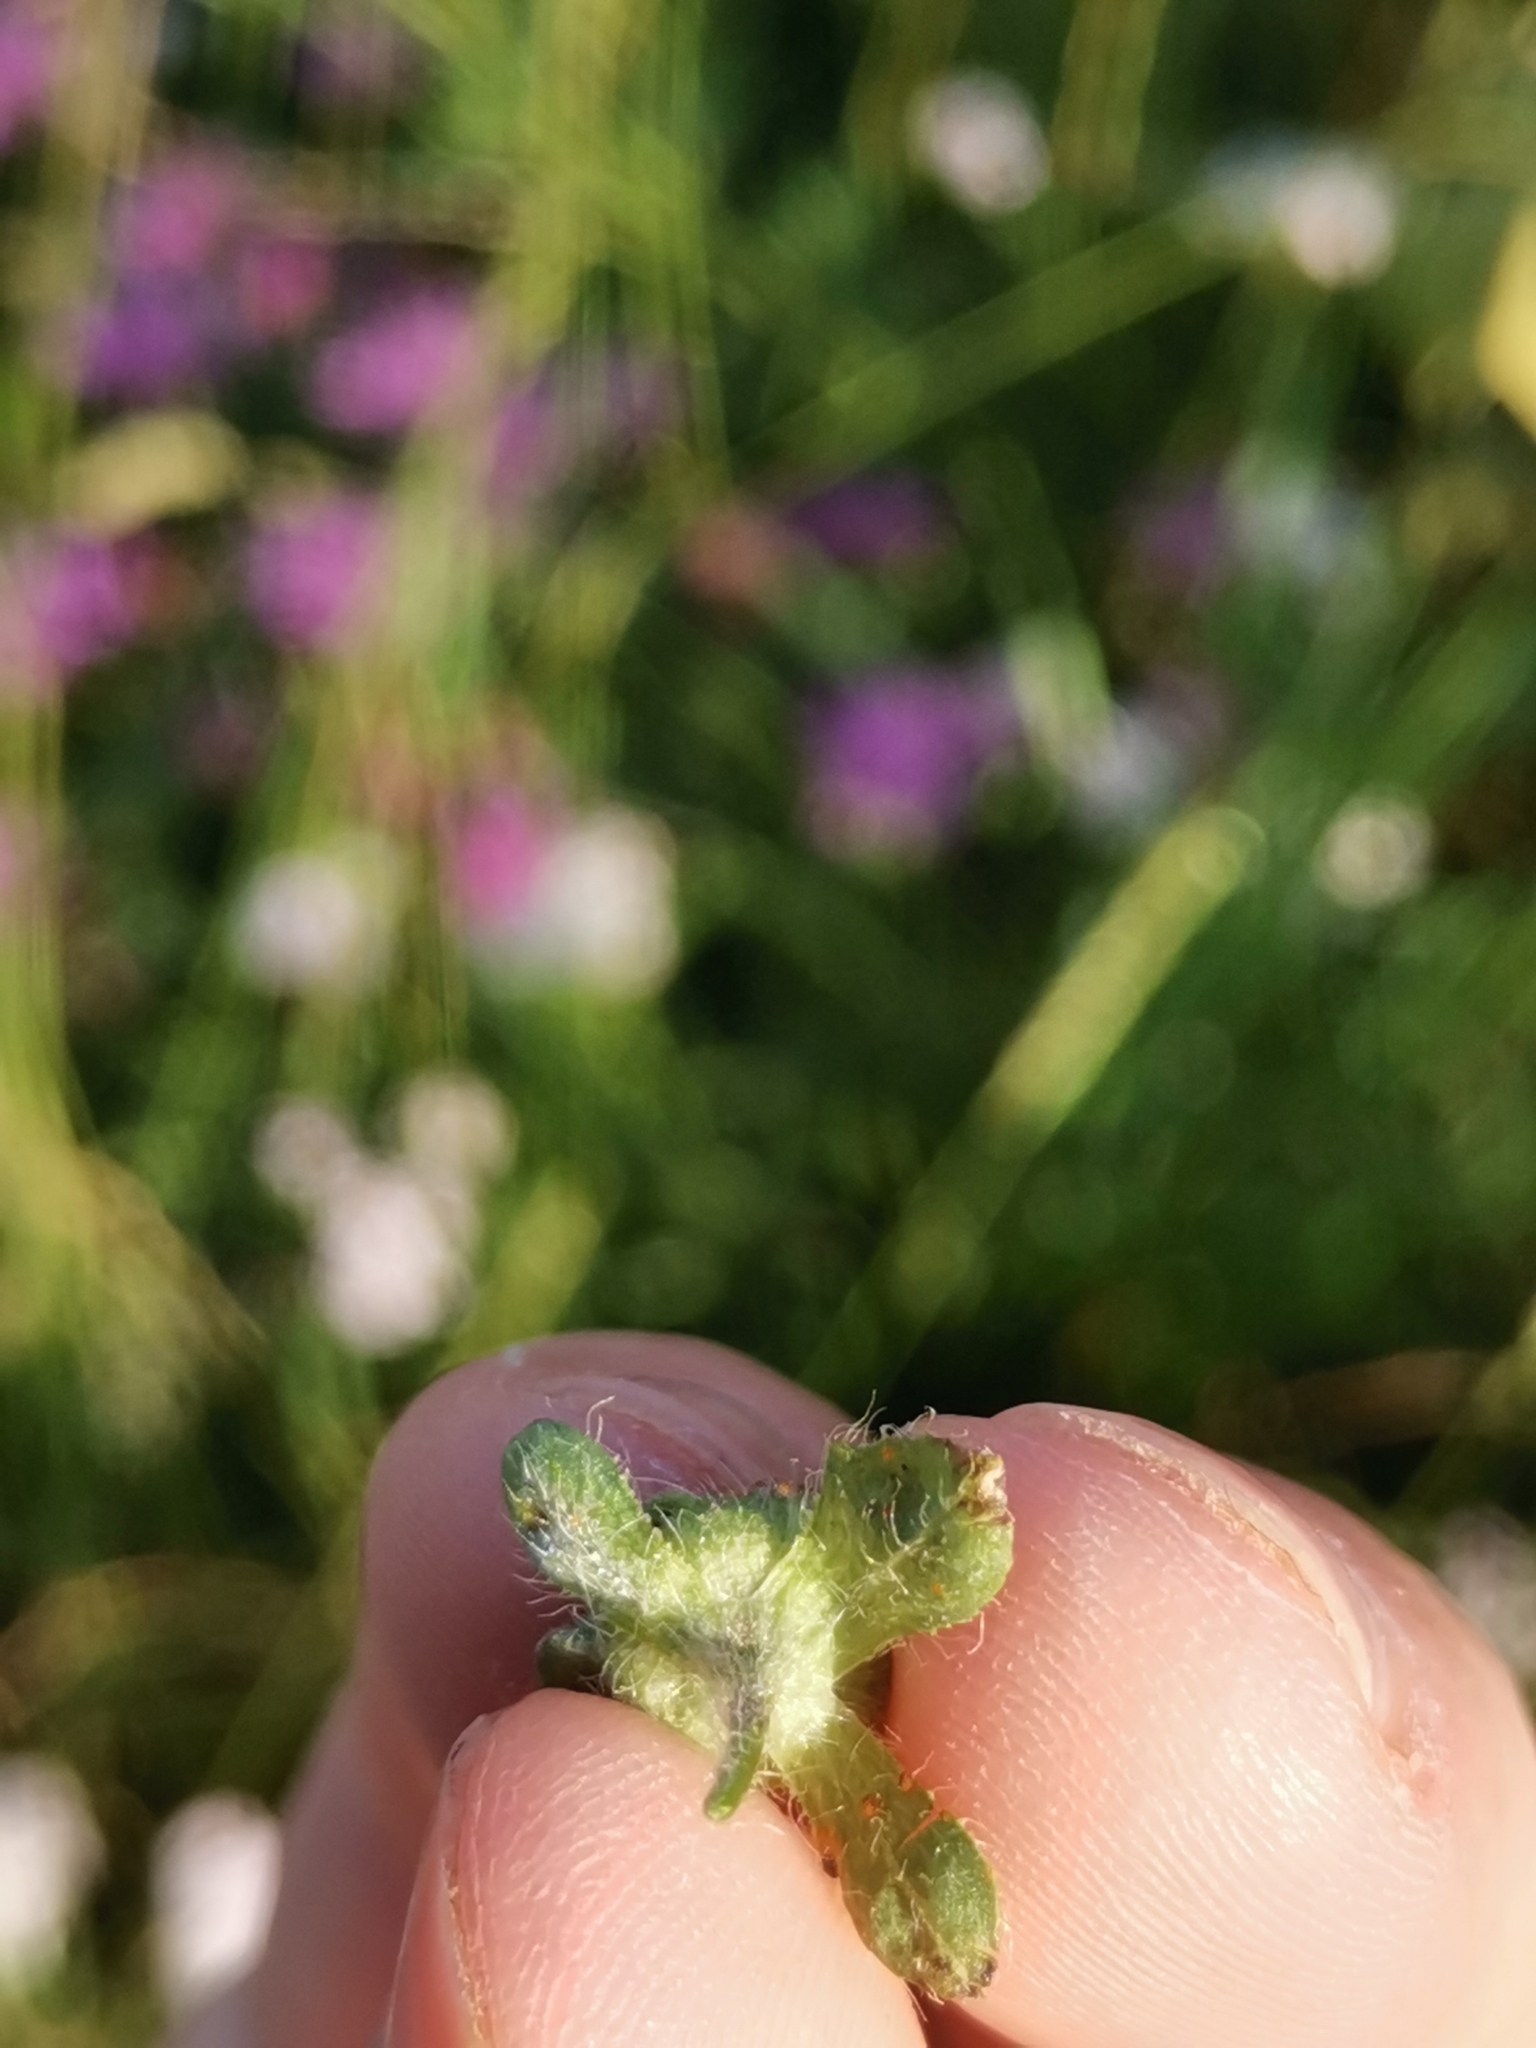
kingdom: Plantae
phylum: Tracheophyta
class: Magnoliopsida
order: Malvales
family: Malvaceae
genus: Malva
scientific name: Malva sylvestris
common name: Common mallow
